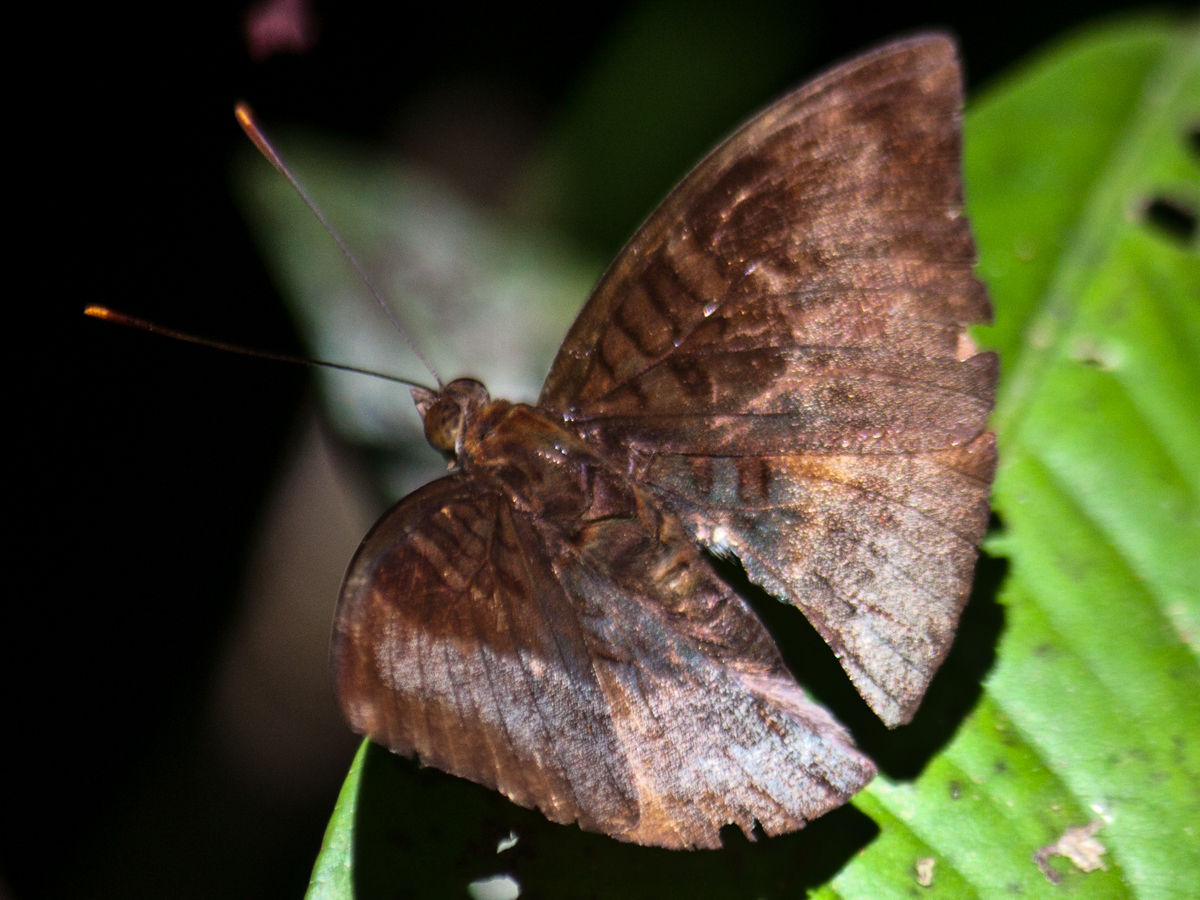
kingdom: Animalia
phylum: Arthropoda
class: Insecta
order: Lepidoptera
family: Nymphalidae
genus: Euthalia
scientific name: Euthalia monina
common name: Powdered baron
